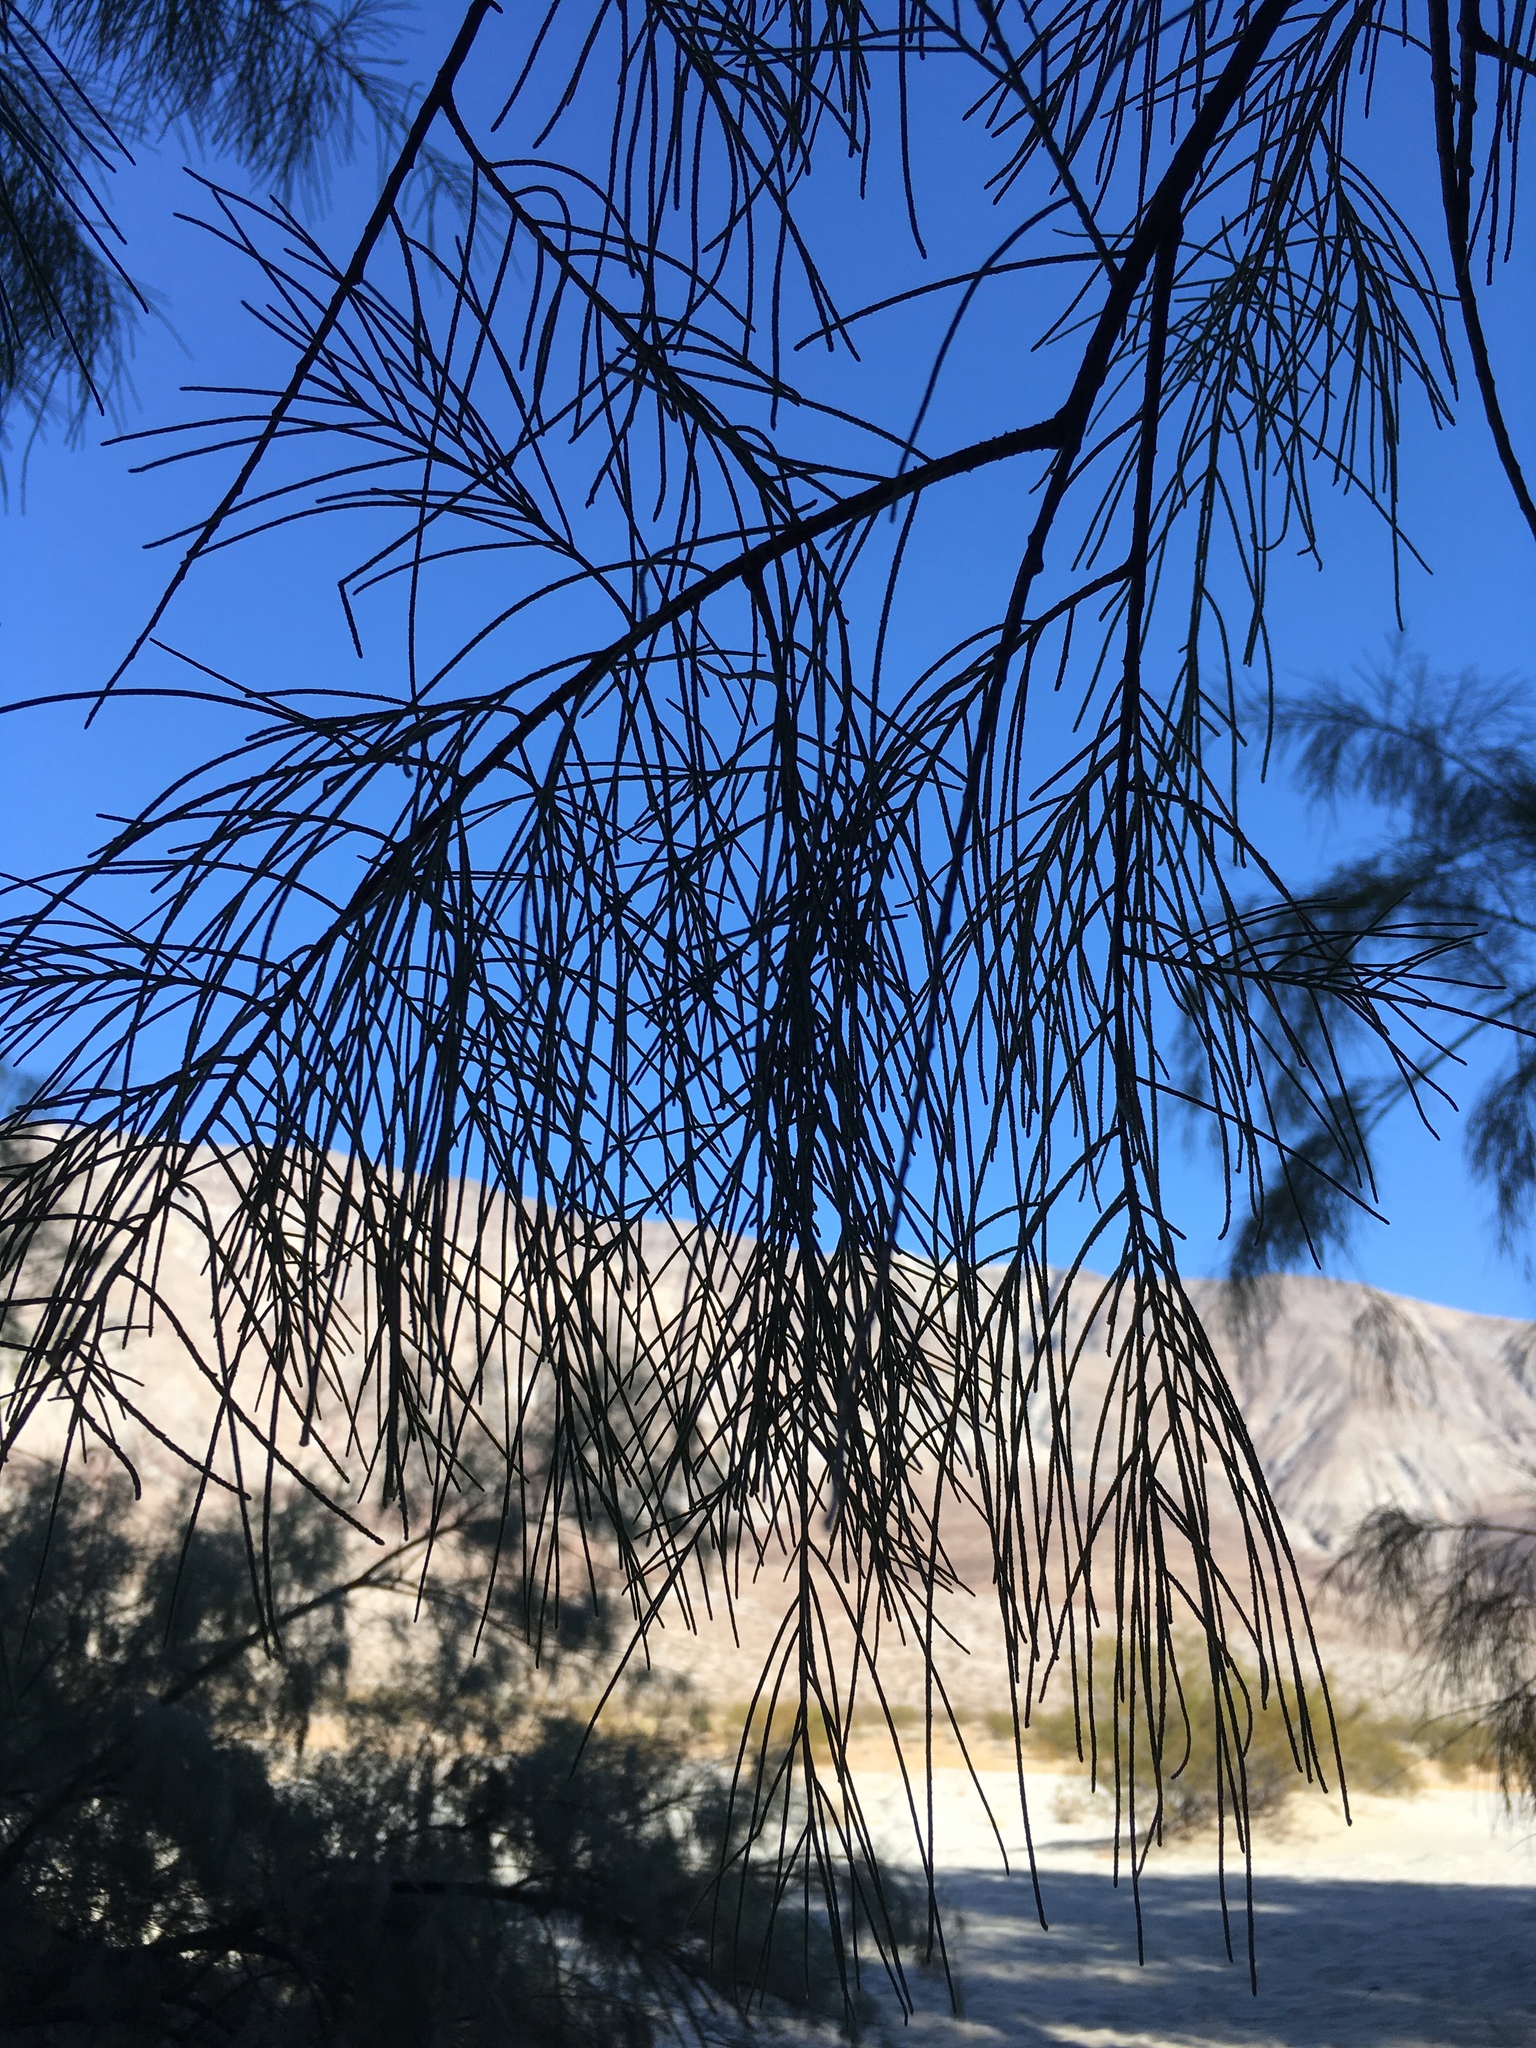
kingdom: Plantae
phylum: Tracheophyta
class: Magnoliopsida
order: Caryophyllales
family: Tamaricaceae
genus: Tamarix
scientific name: Tamarix aphylla
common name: Athel tamarisk
